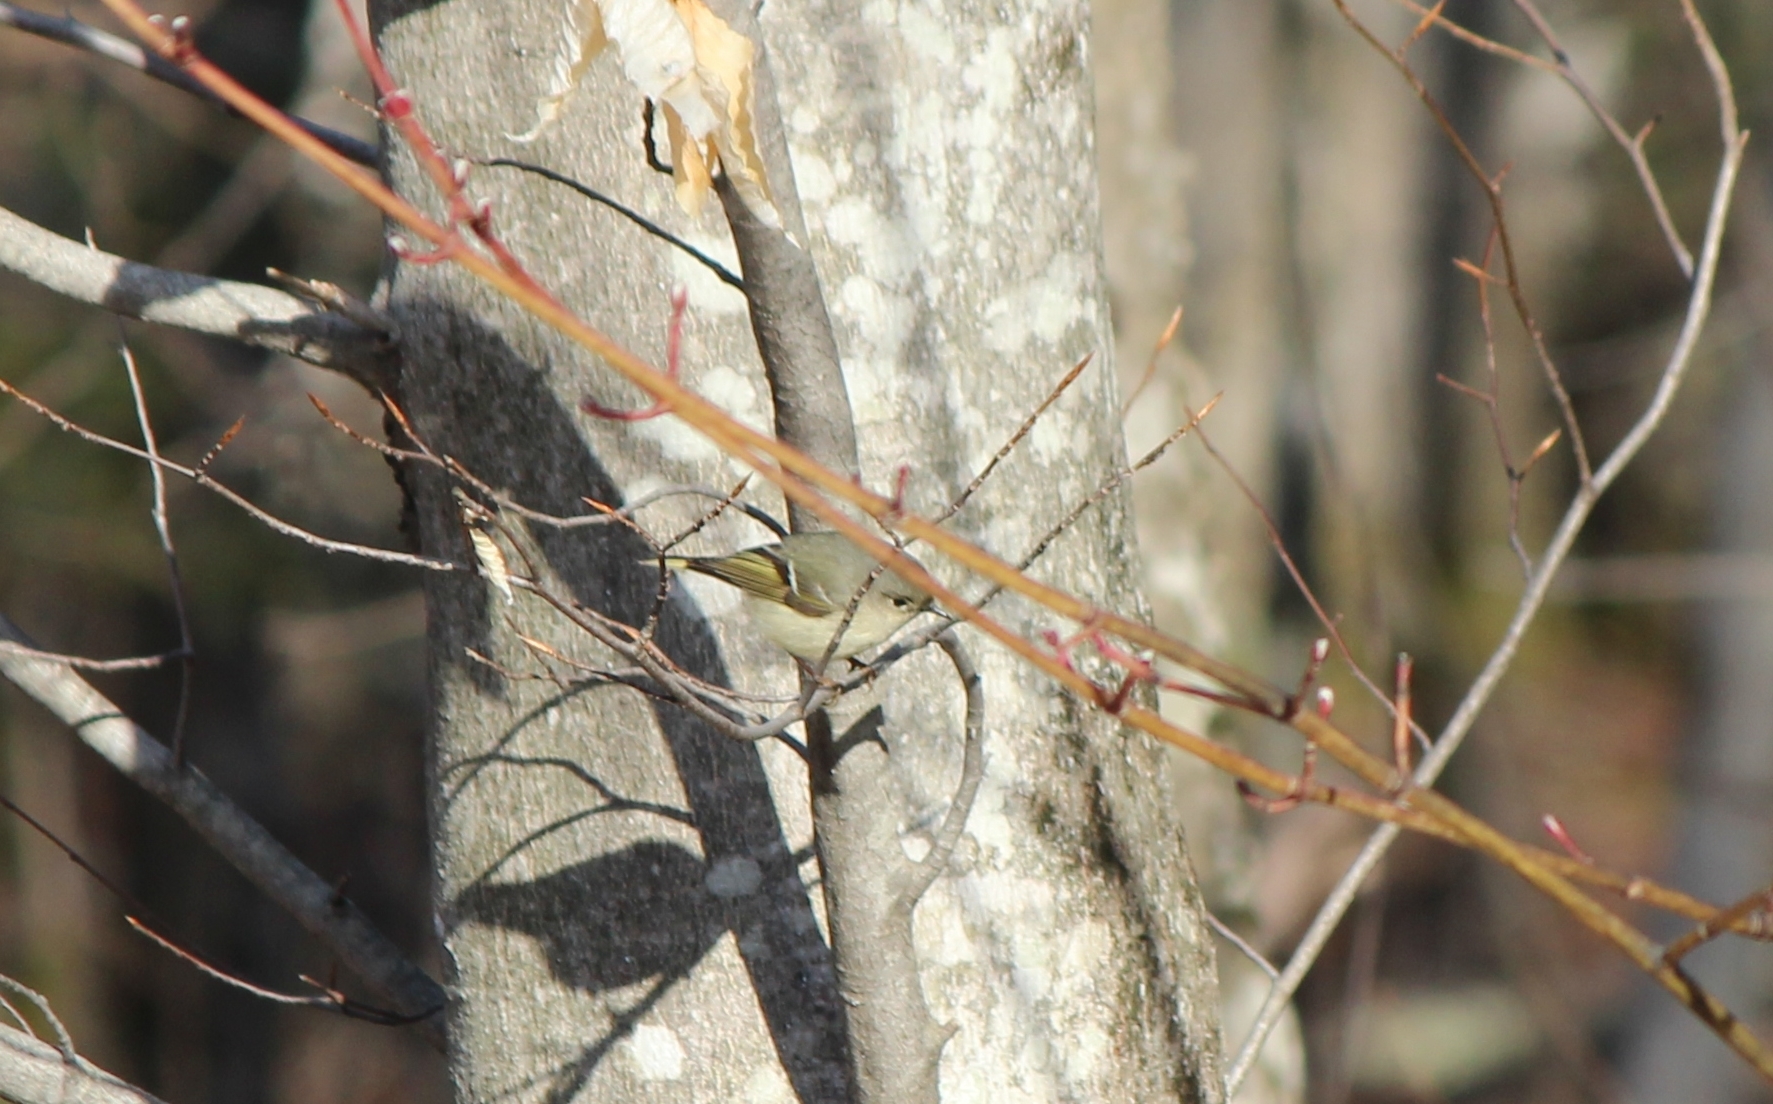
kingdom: Animalia
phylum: Chordata
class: Aves
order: Passeriformes
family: Regulidae
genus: Regulus
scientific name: Regulus calendula
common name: Ruby-crowned kinglet
